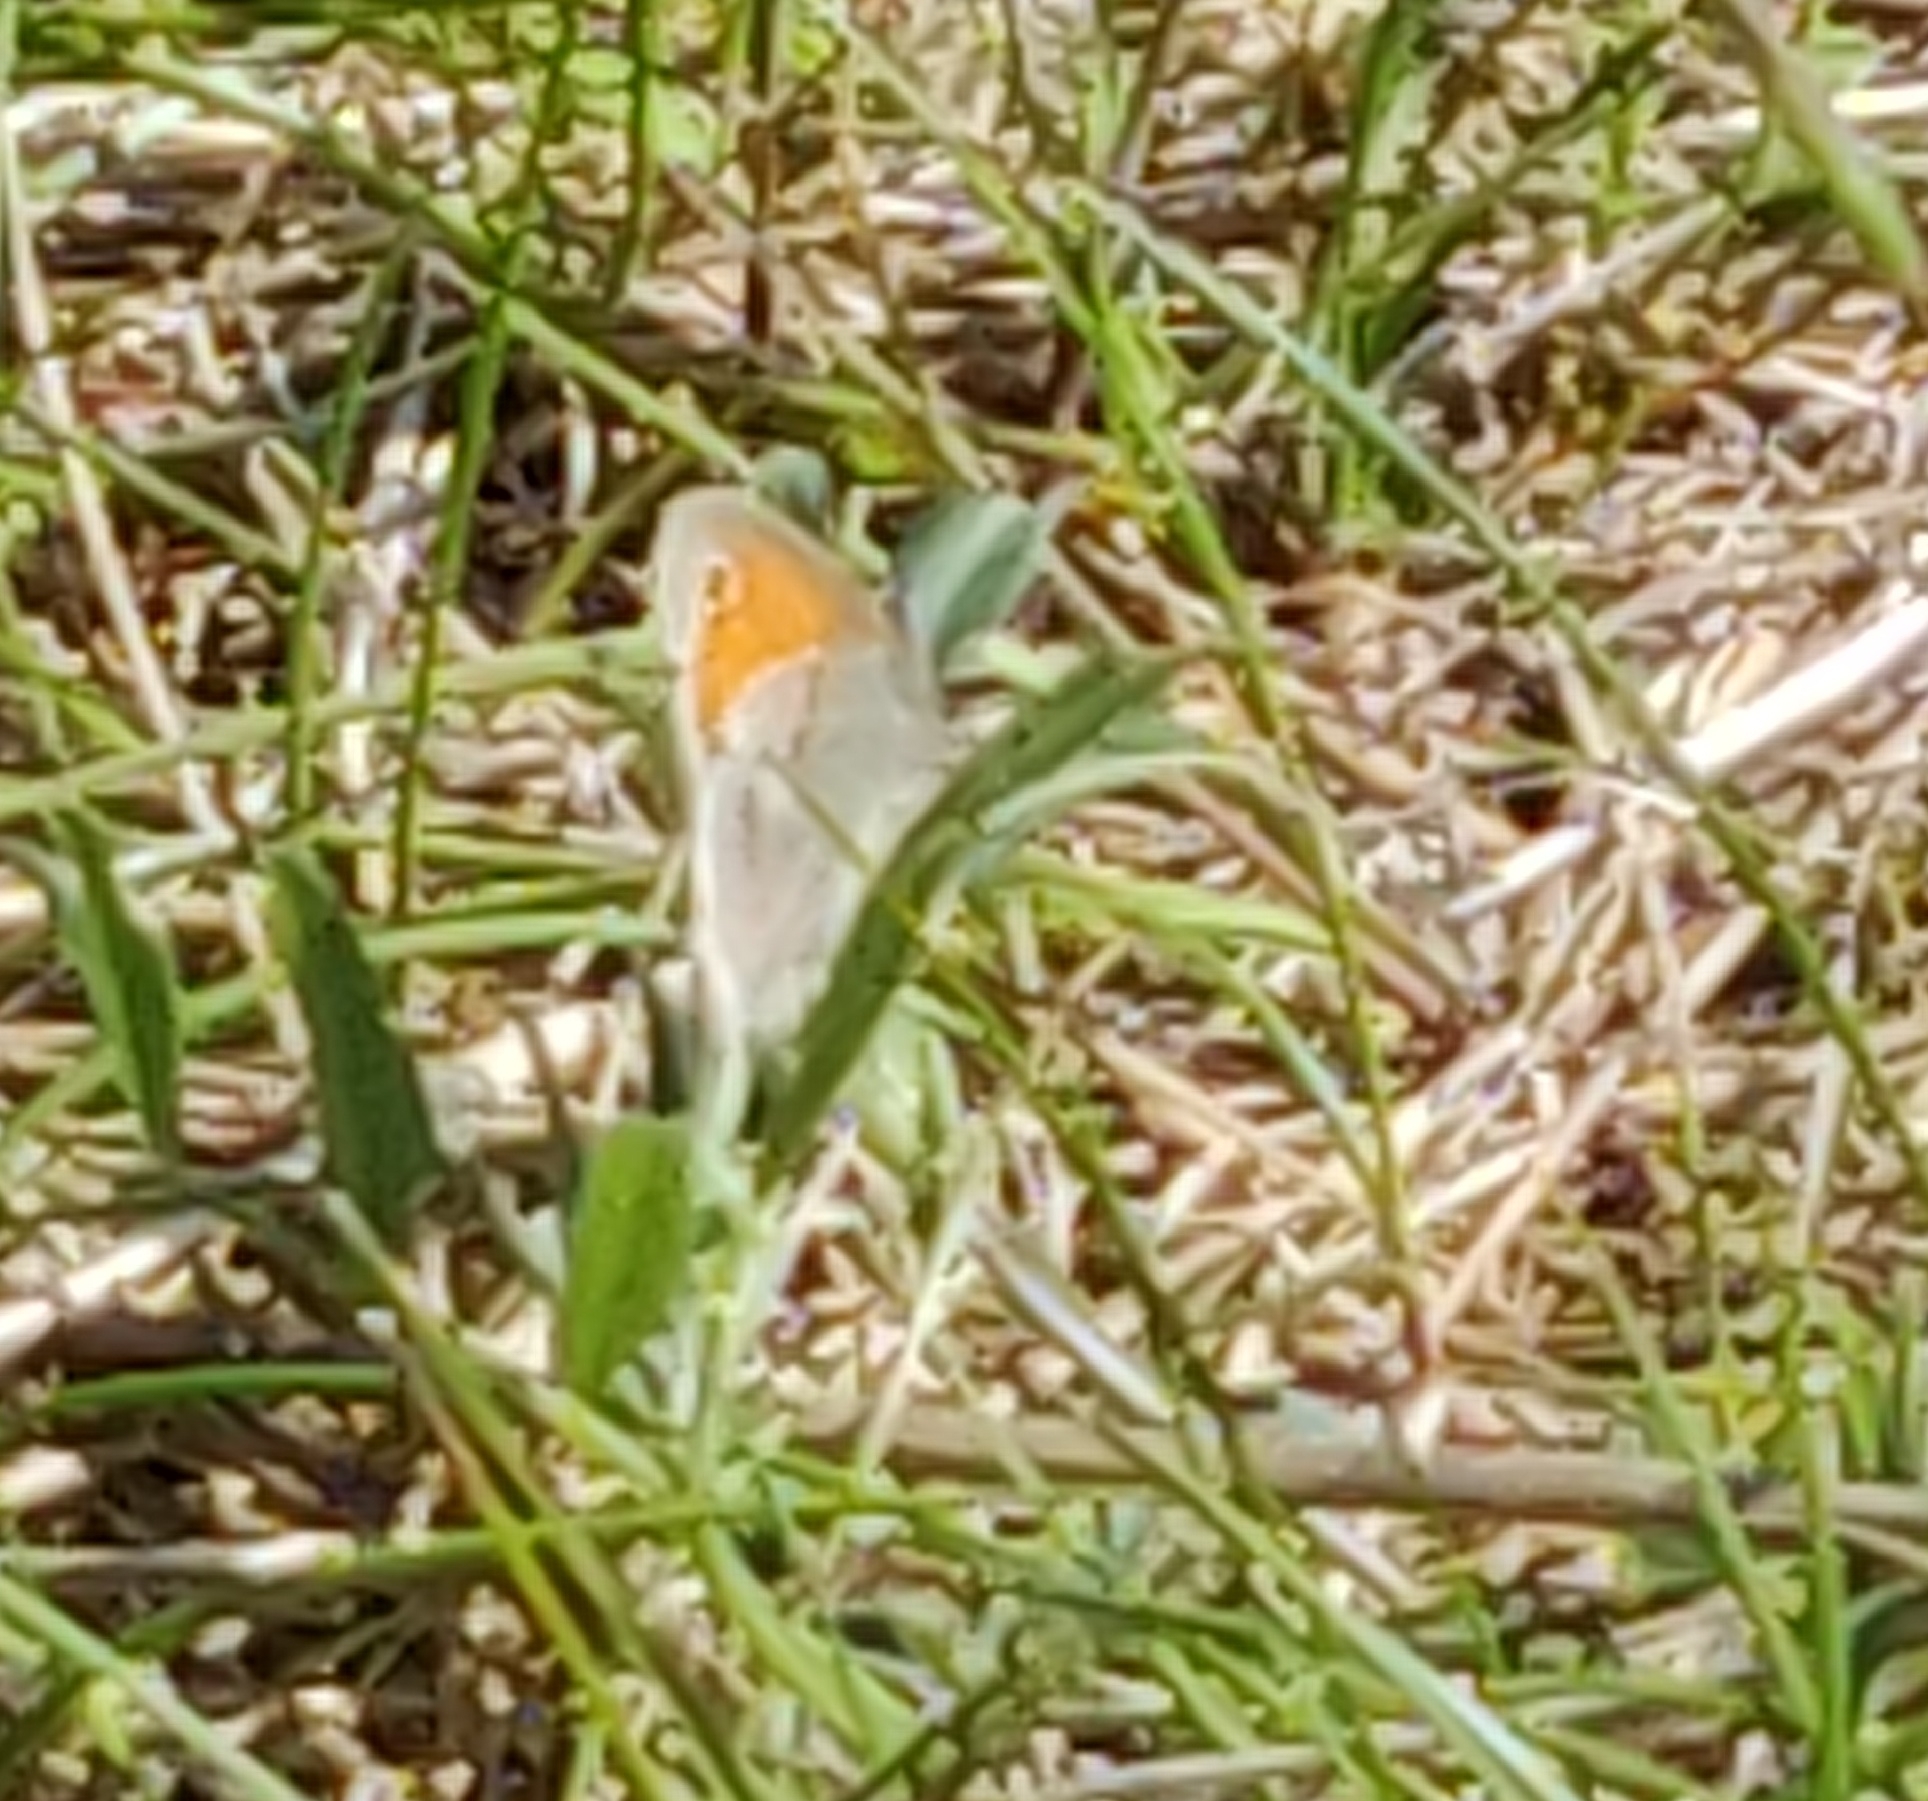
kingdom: Animalia
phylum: Arthropoda
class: Insecta
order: Lepidoptera
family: Nymphalidae
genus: Coenonympha
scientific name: Coenonympha pamphilus
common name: Small heath
